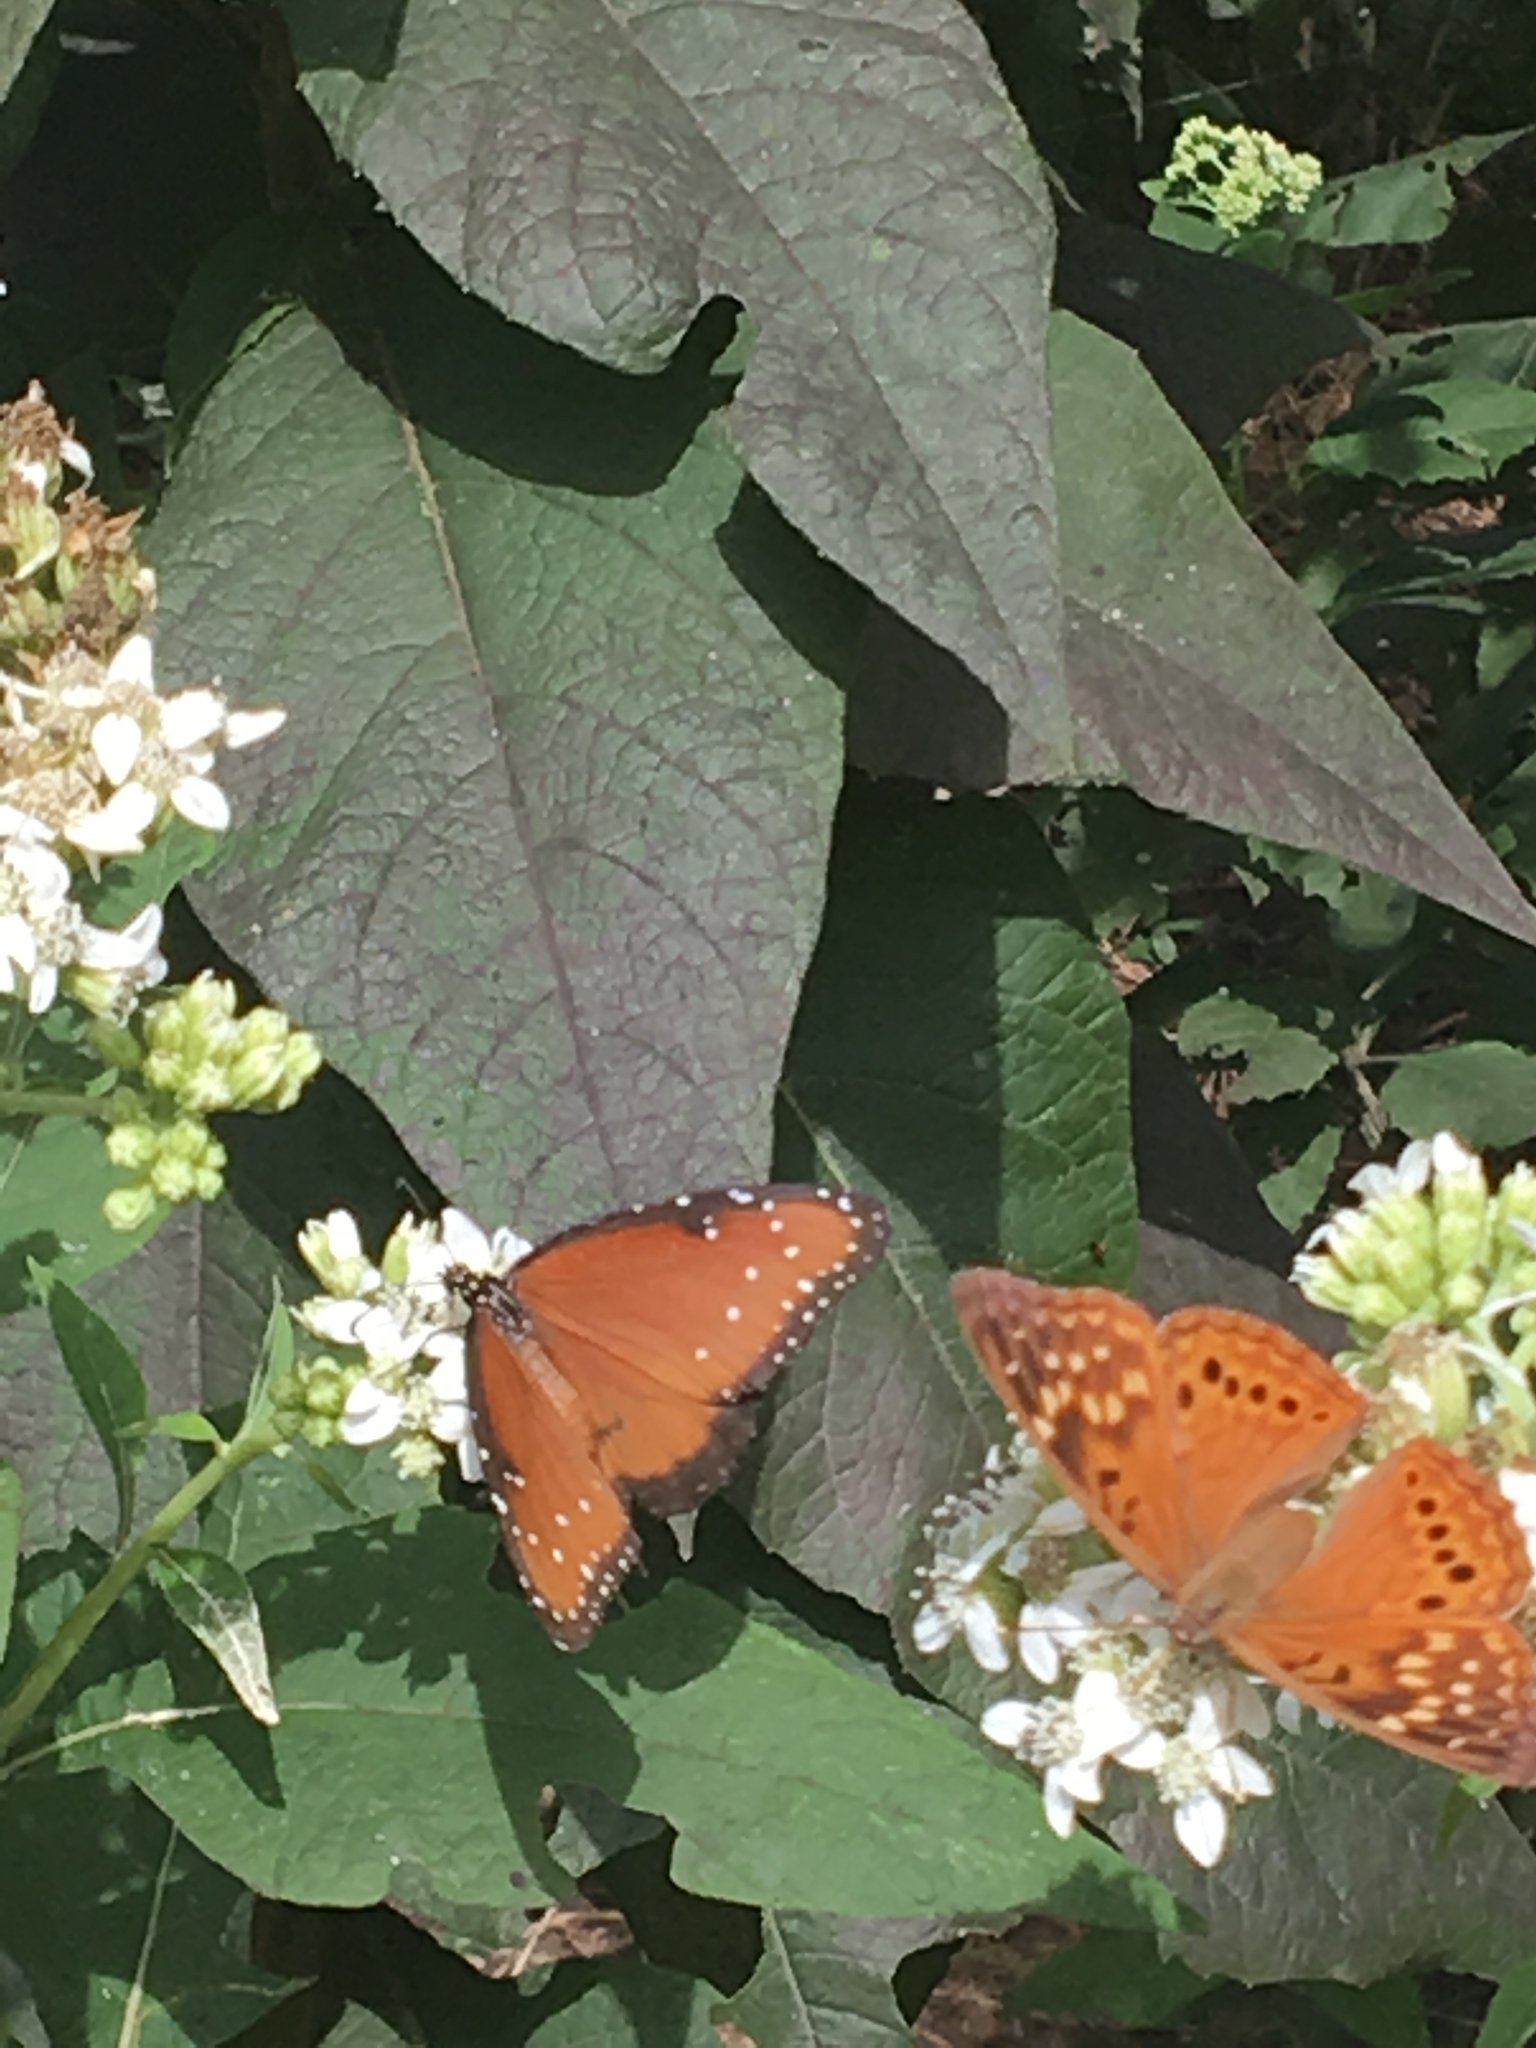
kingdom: Animalia
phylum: Arthropoda
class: Insecta
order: Lepidoptera
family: Nymphalidae
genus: Danaus
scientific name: Danaus gilippus
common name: Queen
